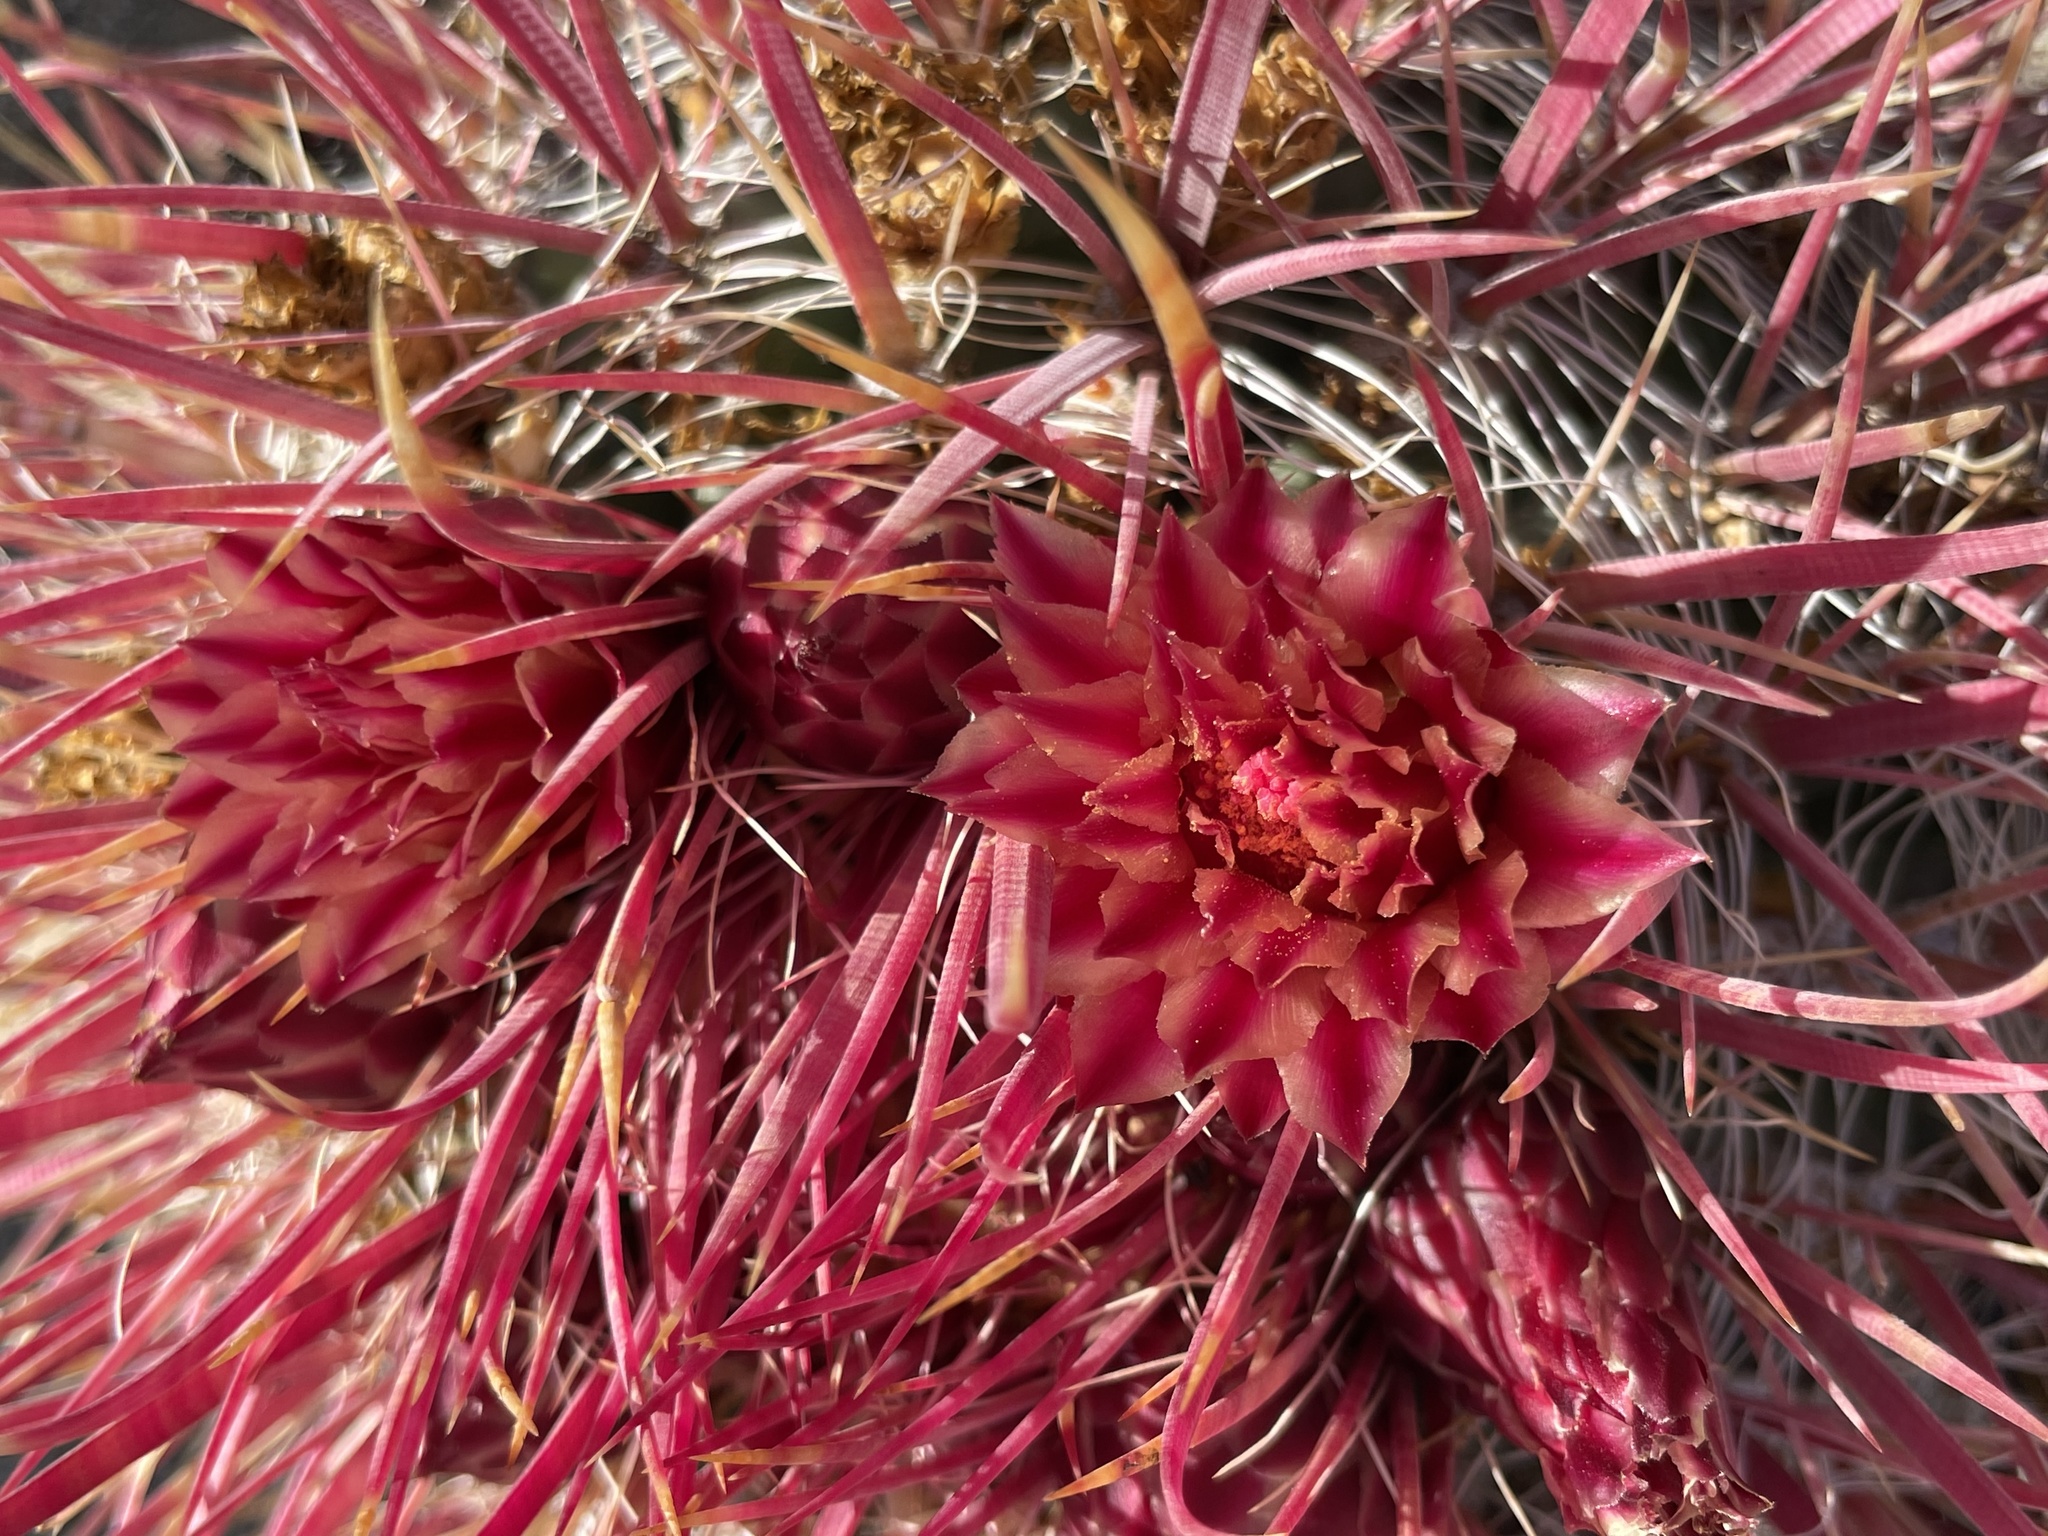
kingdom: Plantae
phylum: Tracheophyta
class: Magnoliopsida
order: Caryophyllales
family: Cactaceae
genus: Ferocactus
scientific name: Ferocactus gracilis
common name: Fire barrel cactus
